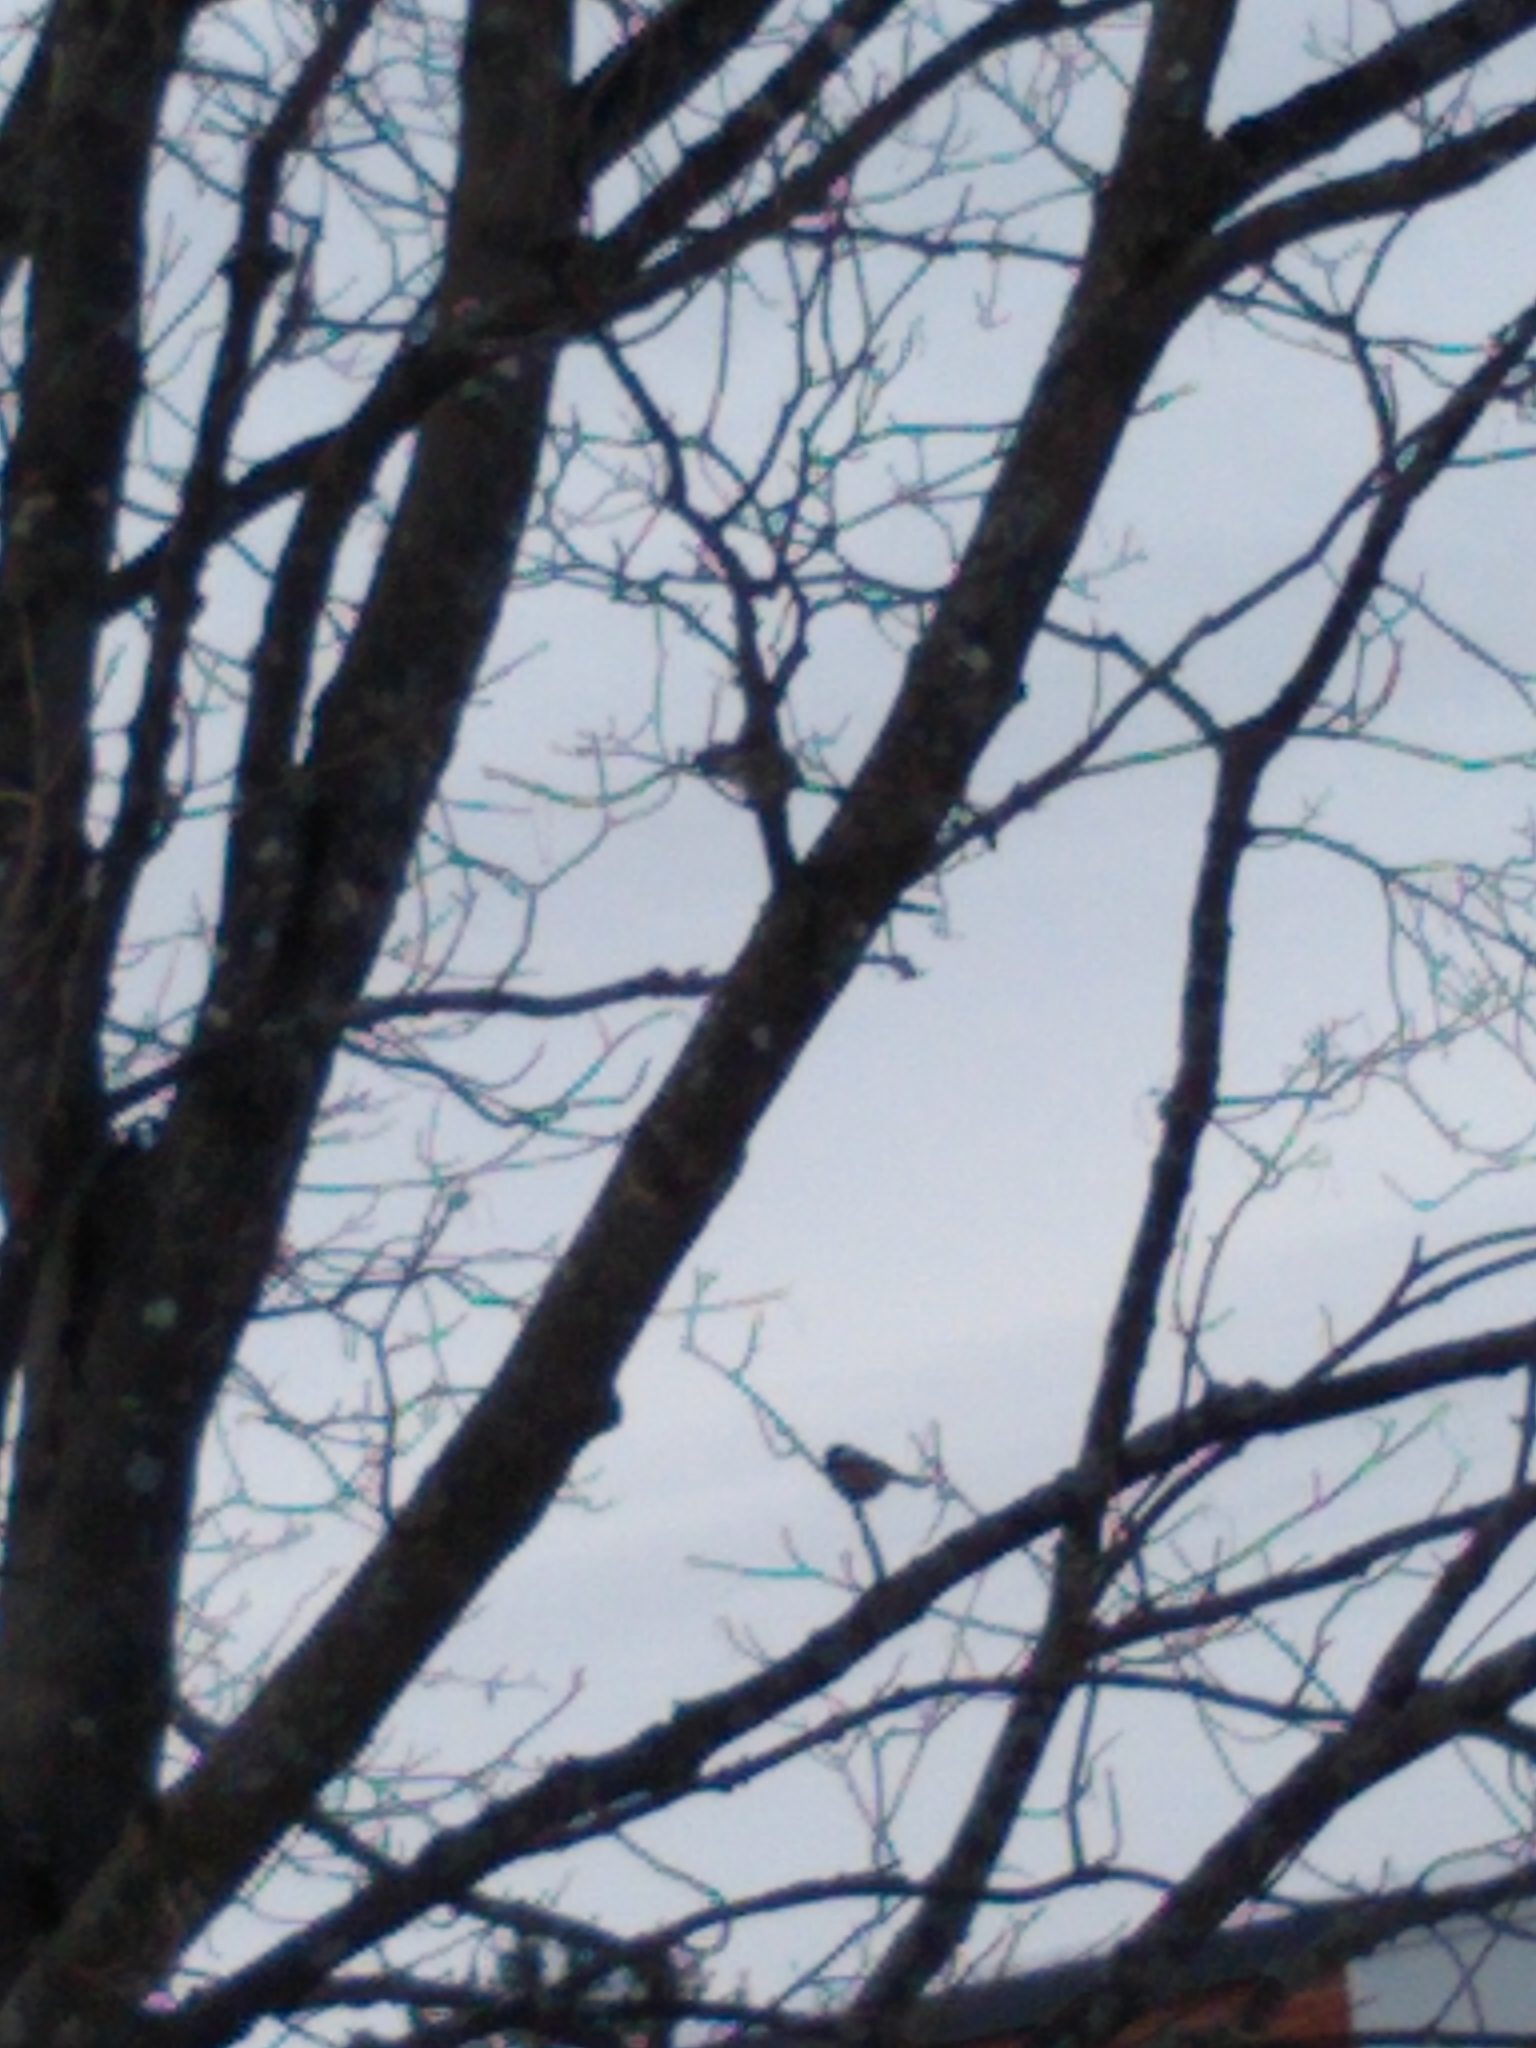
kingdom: Animalia
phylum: Chordata
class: Aves
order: Passeriformes
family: Paridae
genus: Poecile
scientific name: Poecile atricapillus
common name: Black-capped chickadee
